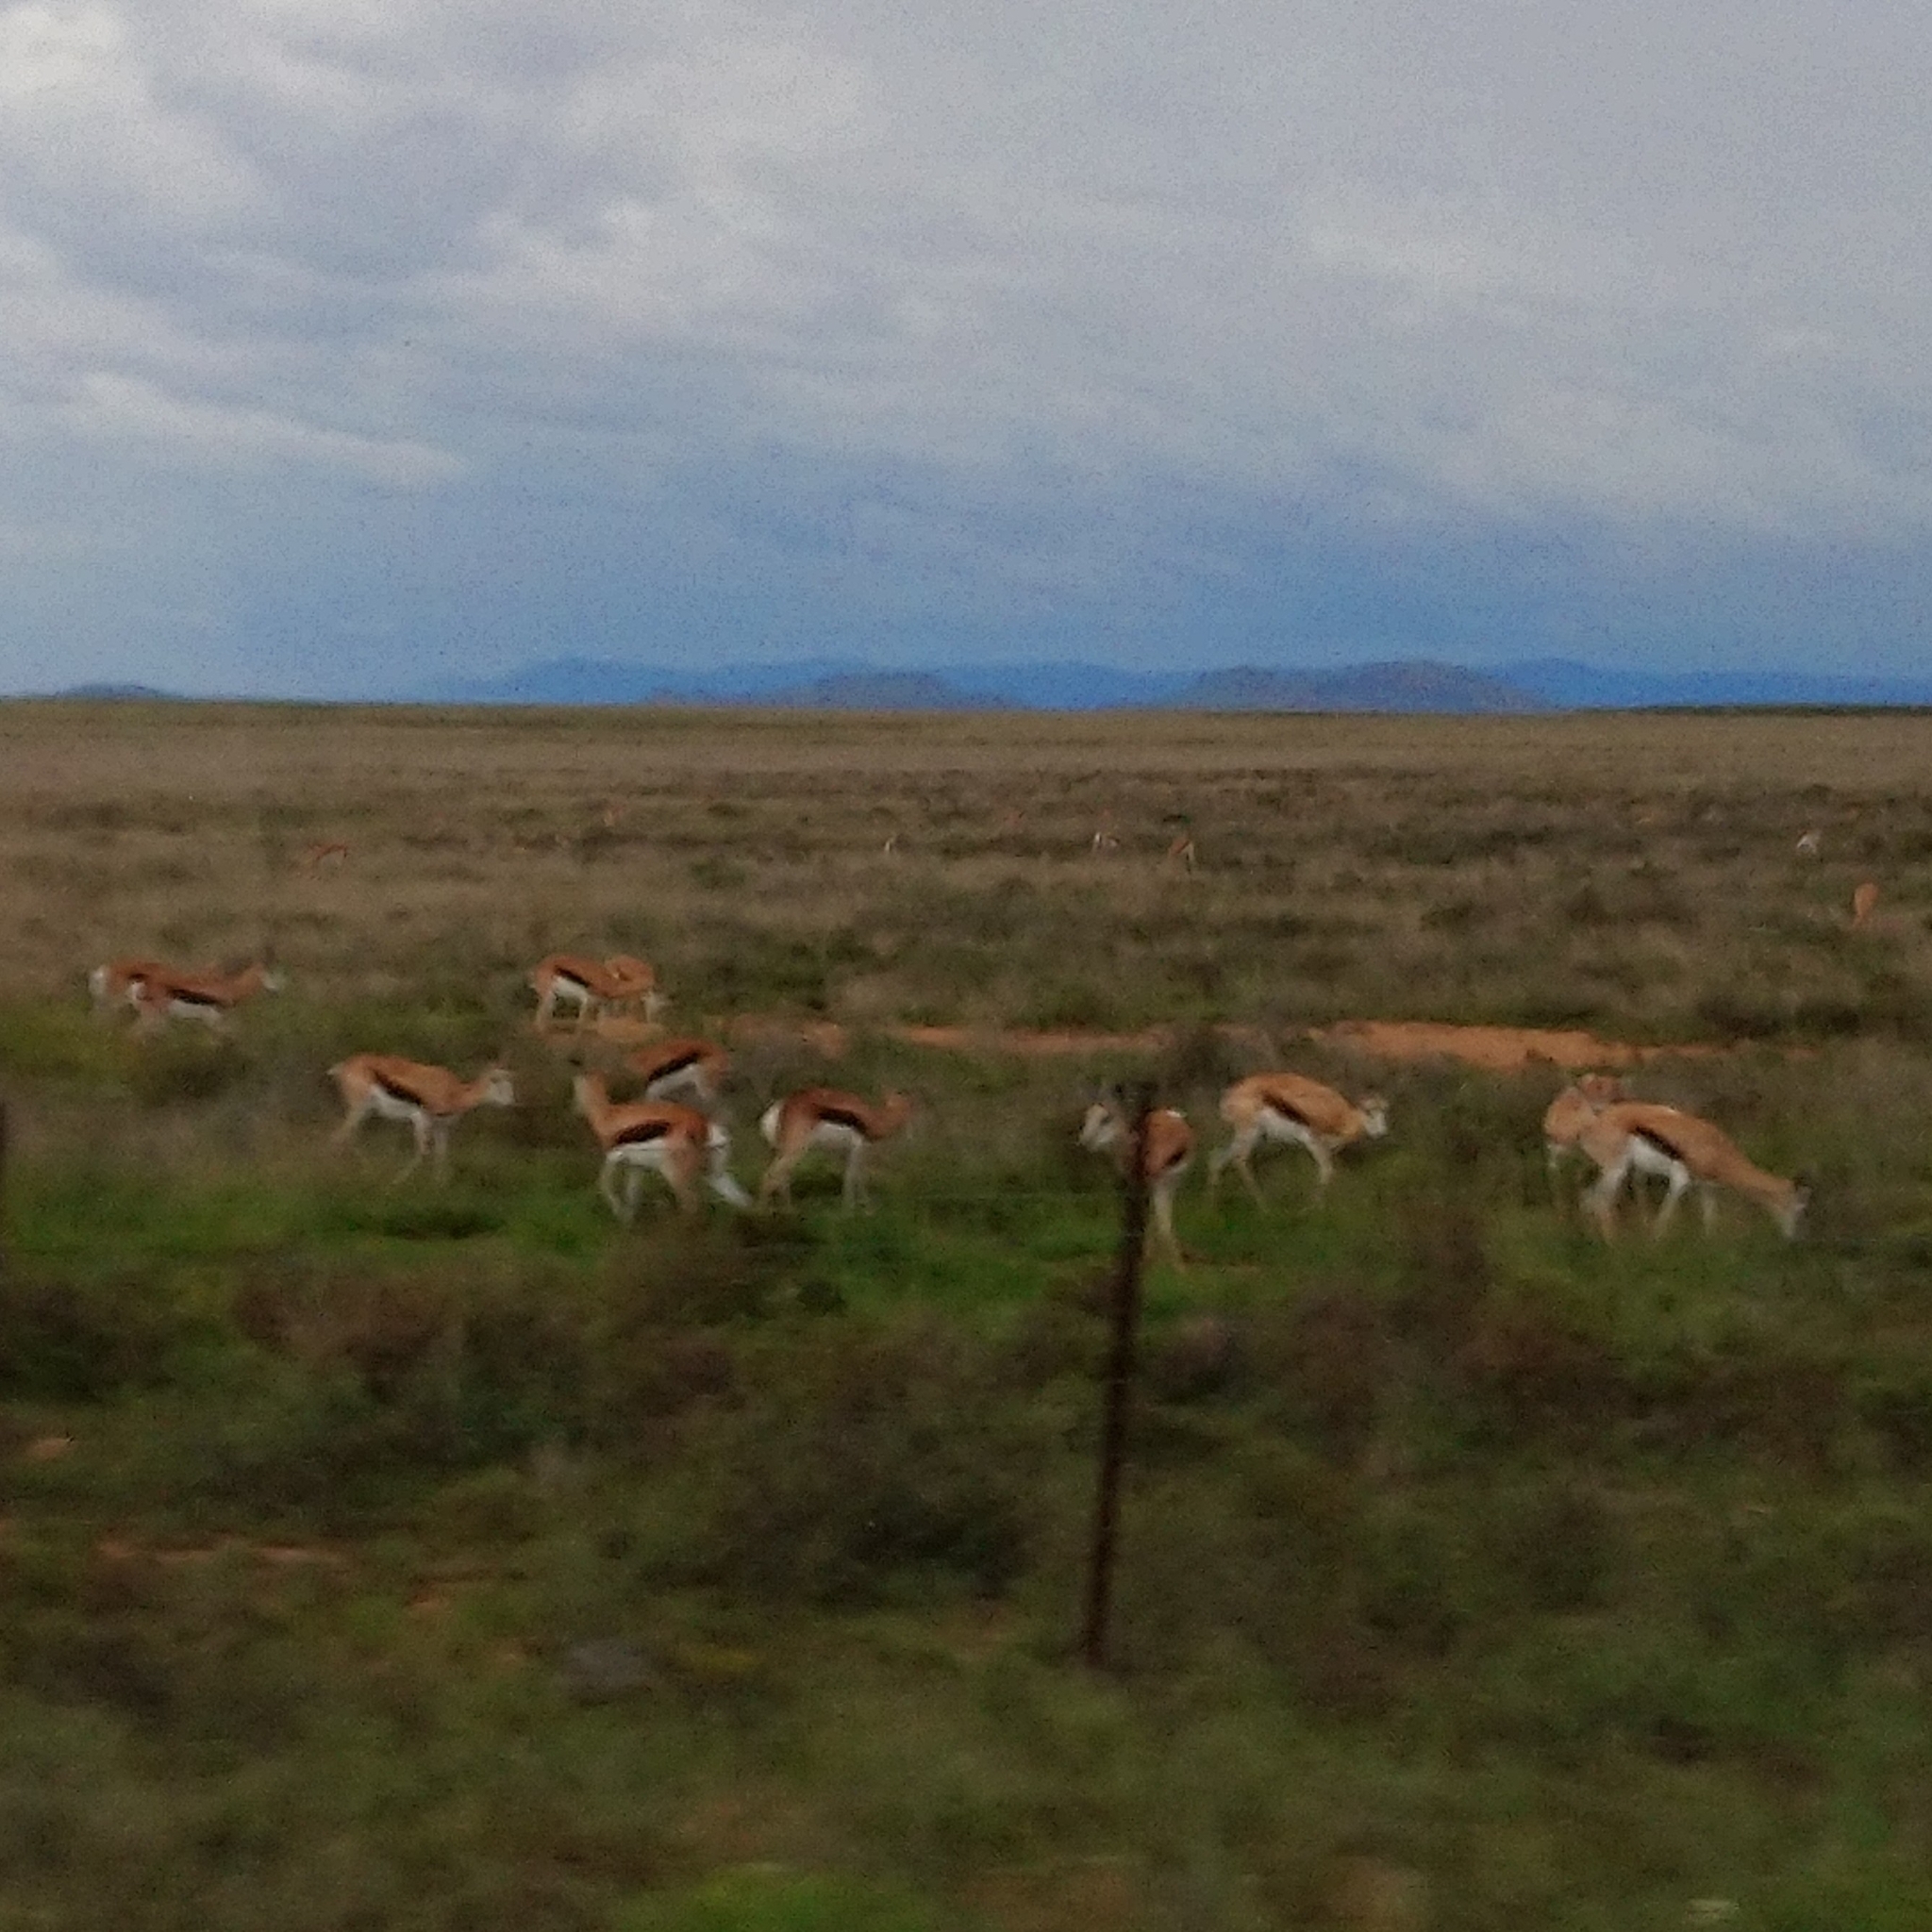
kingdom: Animalia
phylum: Chordata
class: Mammalia
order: Artiodactyla
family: Bovidae
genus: Antidorcas
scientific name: Antidorcas marsupialis
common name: Springbok
